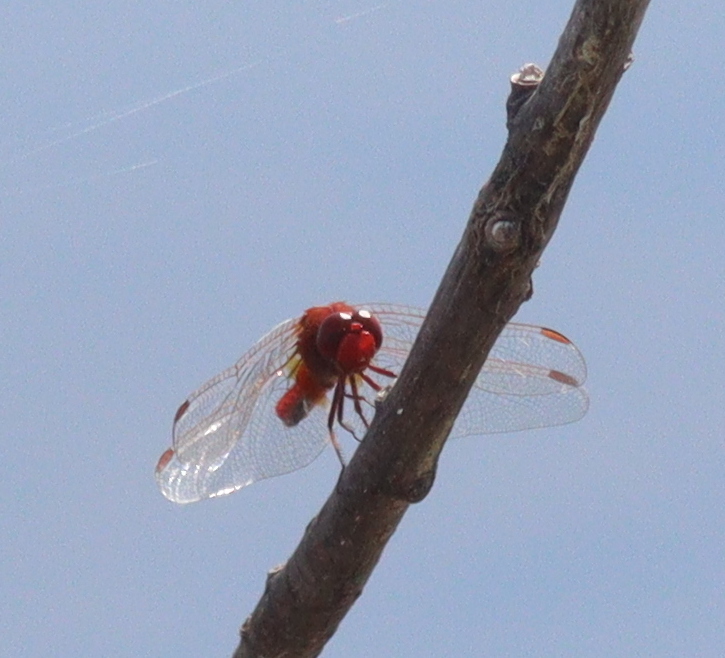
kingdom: Animalia
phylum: Arthropoda
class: Insecta
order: Odonata
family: Libellulidae
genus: Crocothemis
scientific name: Crocothemis erythraea
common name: Scarlet dragonfly
